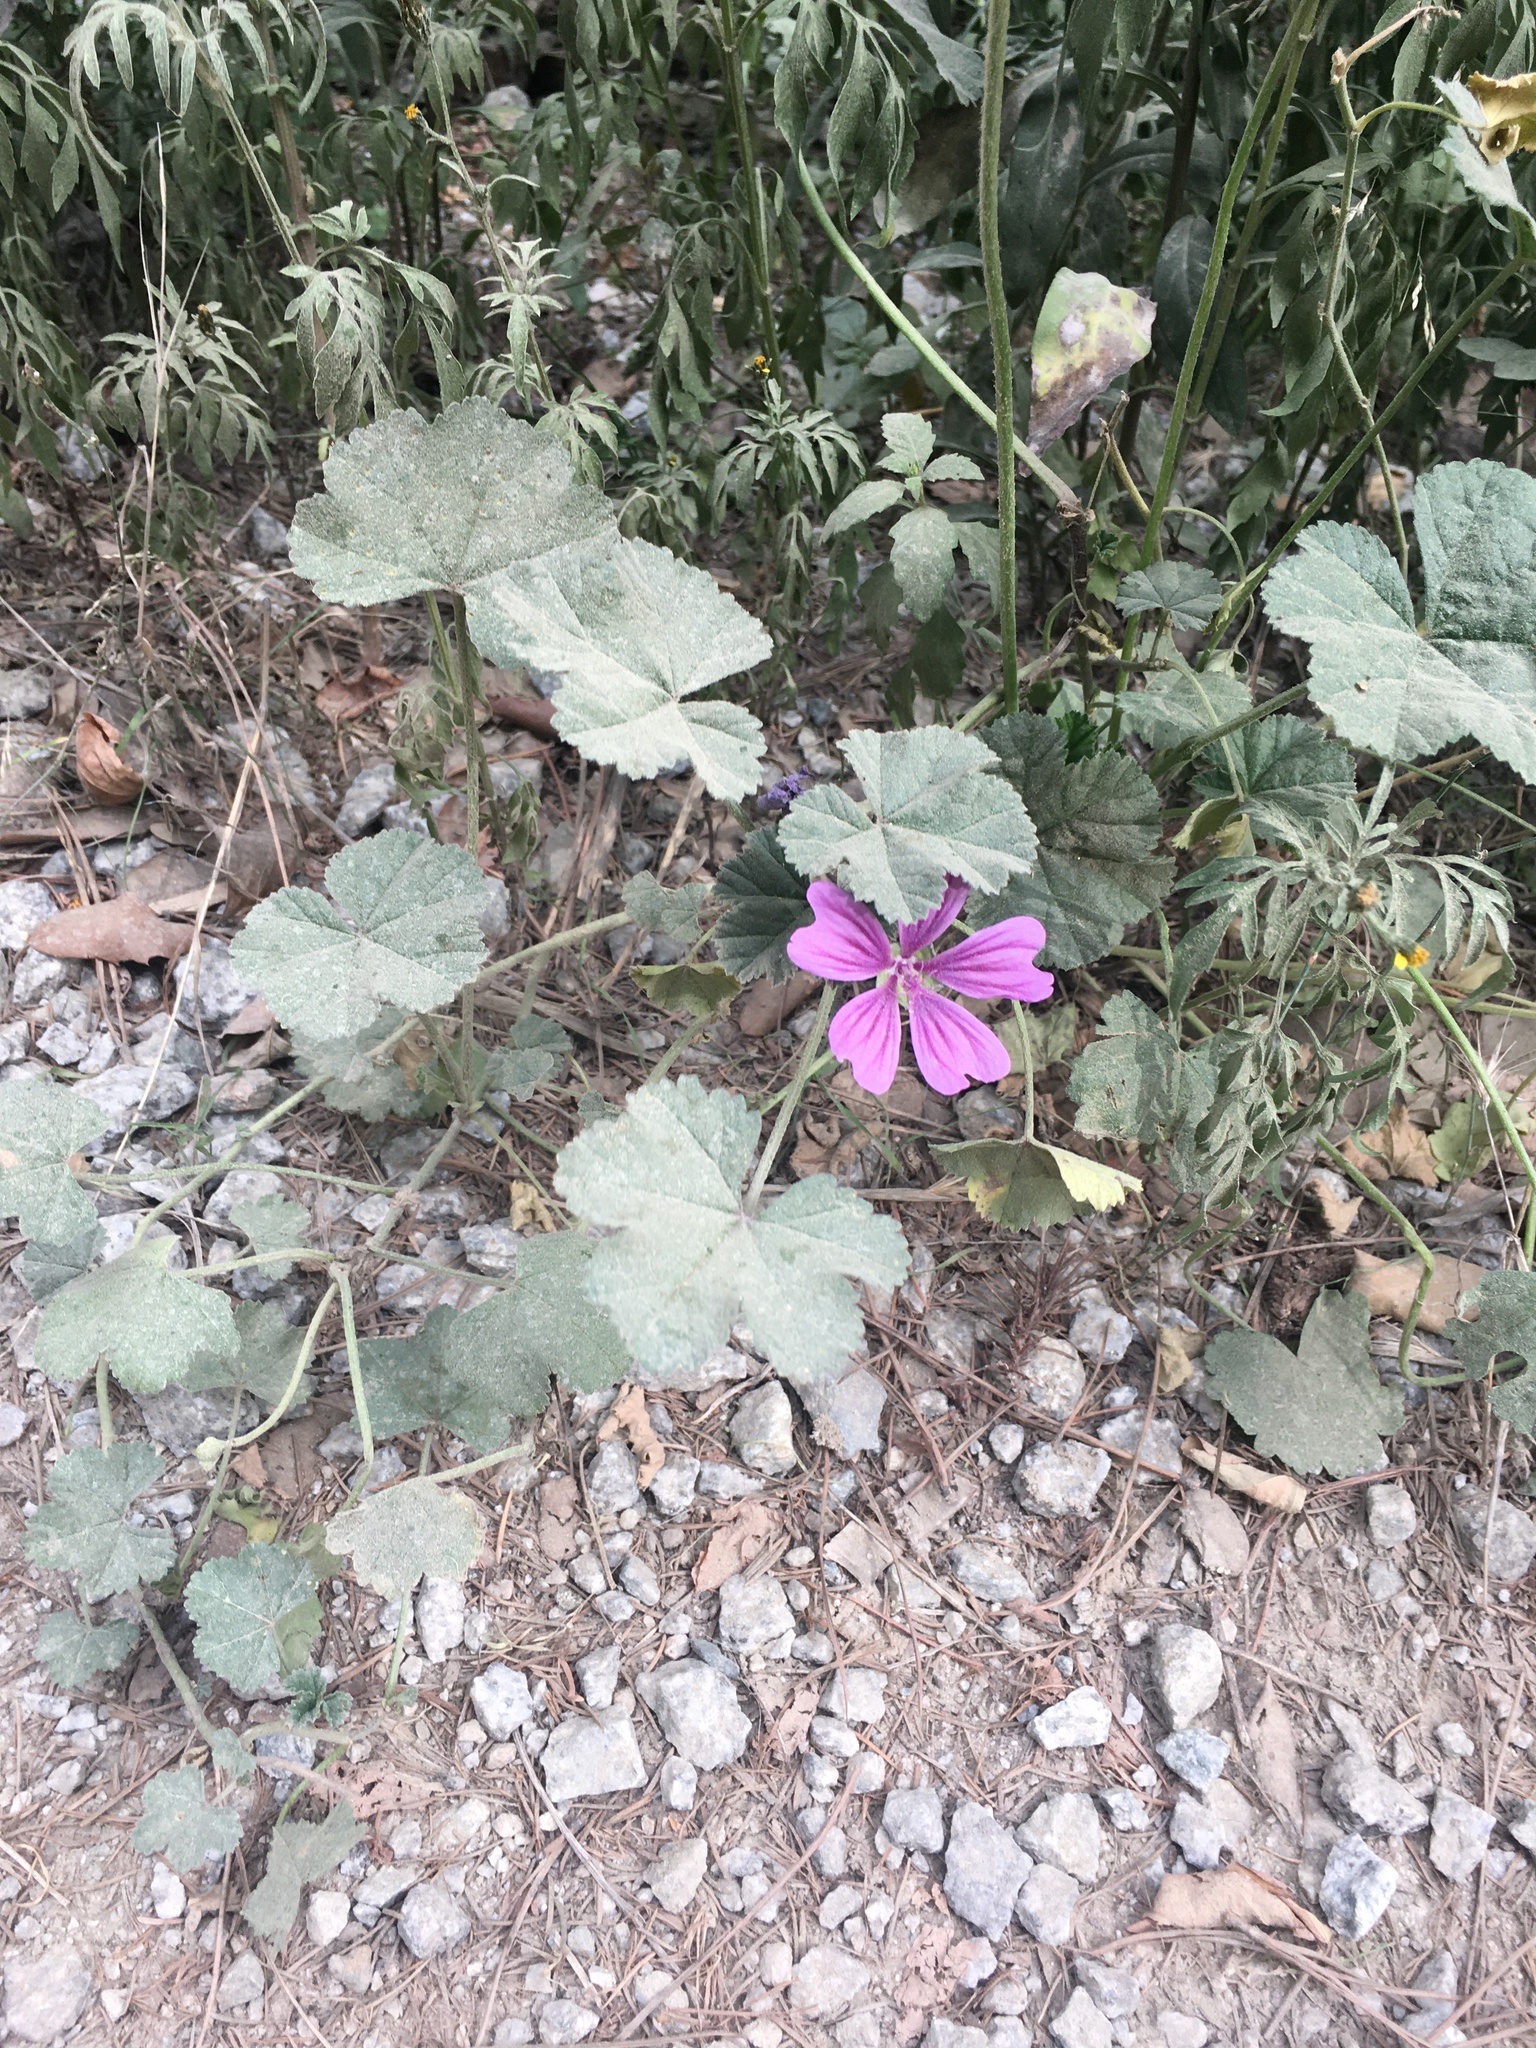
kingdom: Plantae
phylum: Tracheophyta
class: Magnoliopsida
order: Malvales
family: Malvaceae
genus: Malva
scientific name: Malva sylvestris
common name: Common mallow
